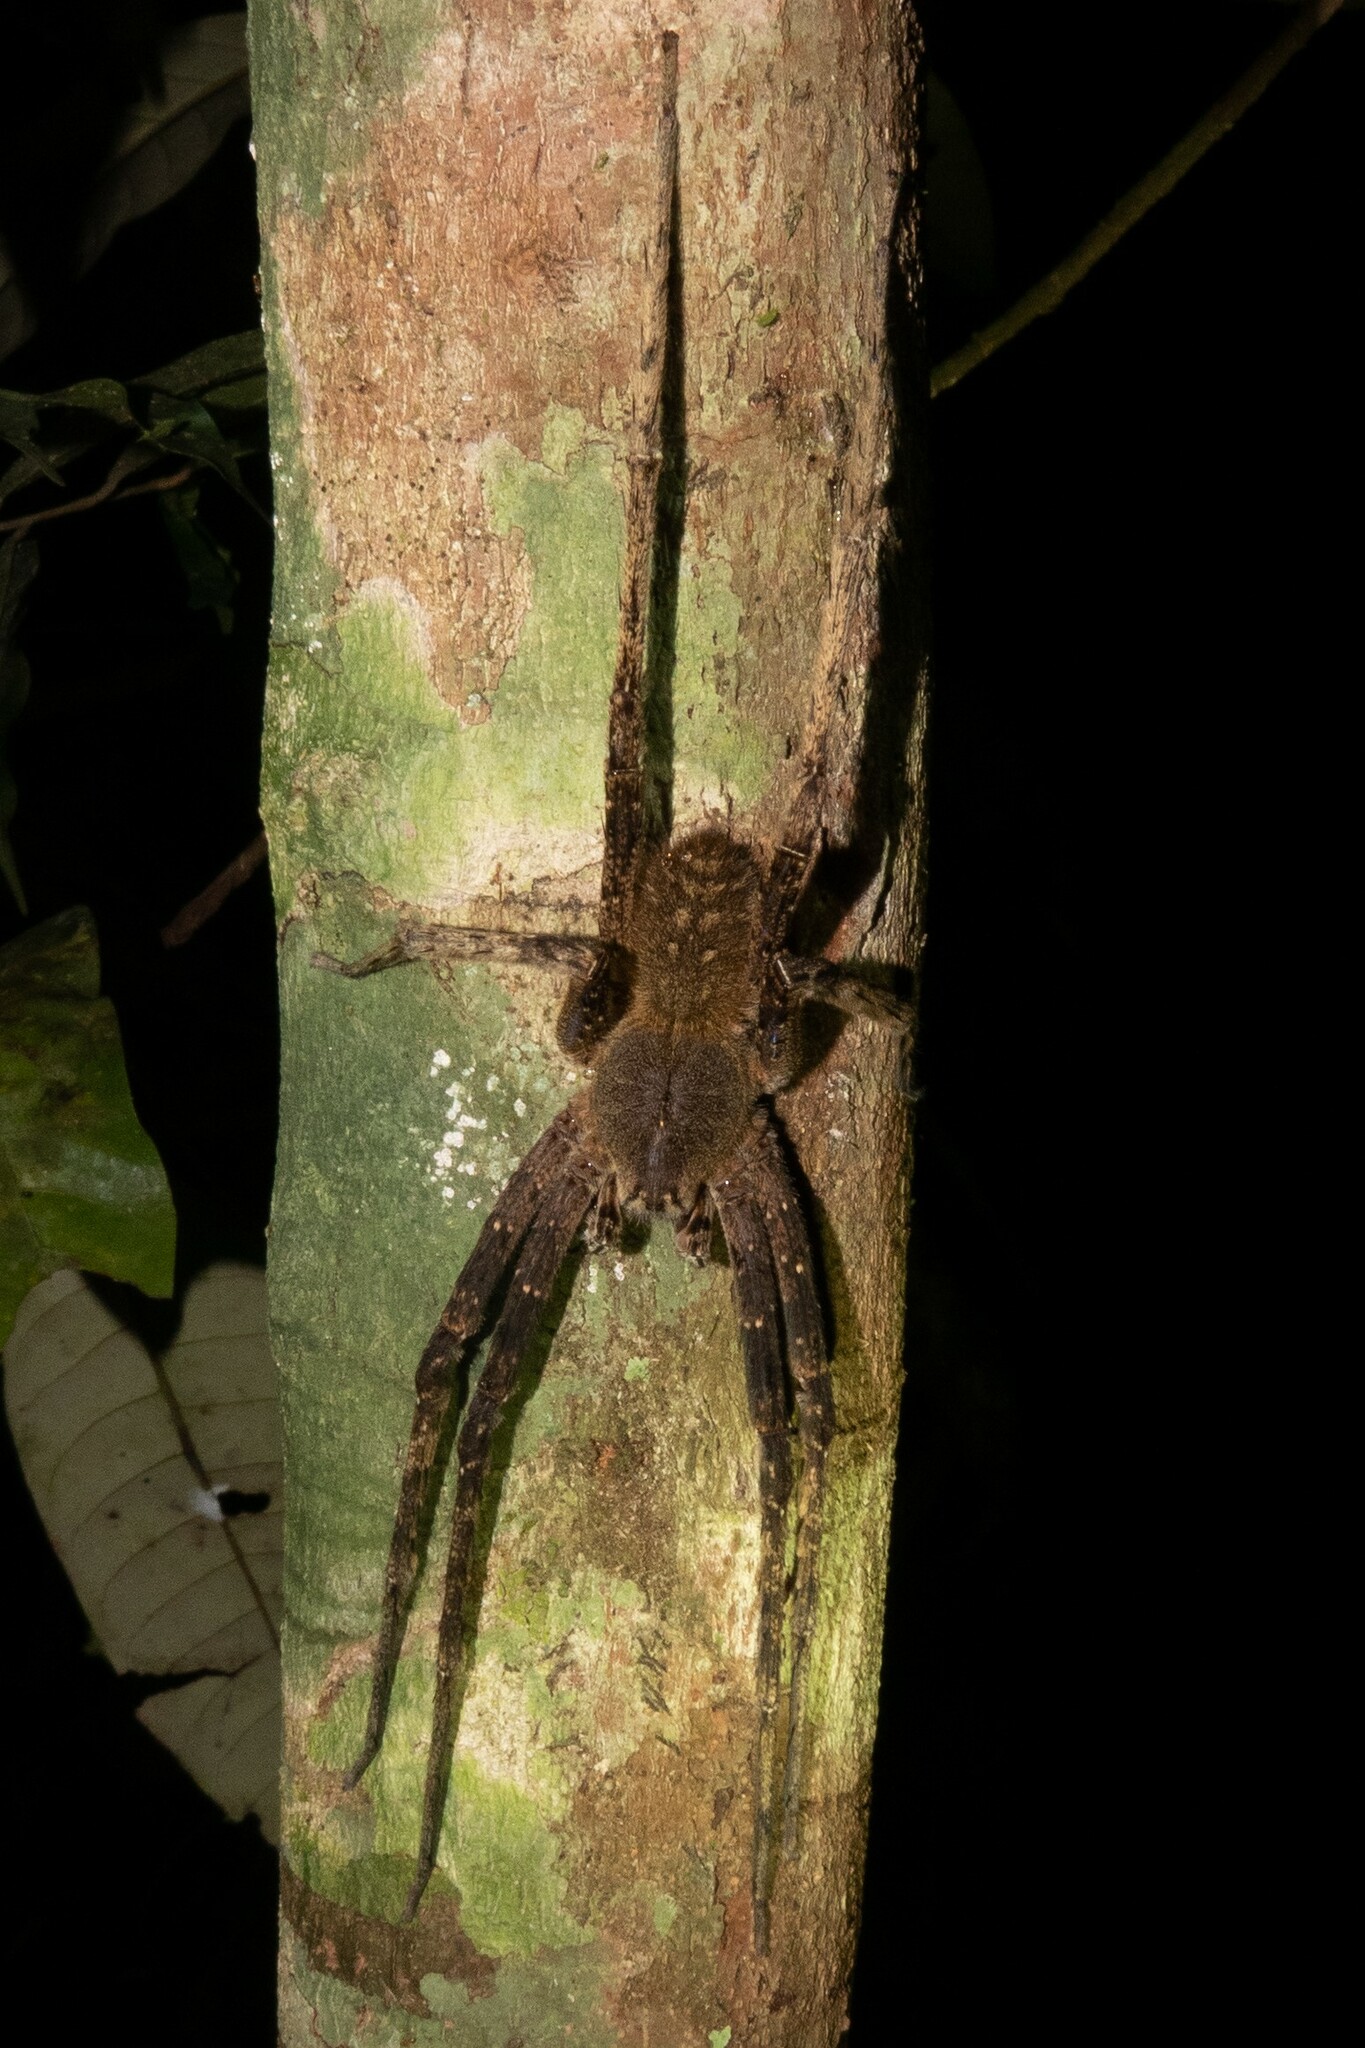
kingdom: Animalia
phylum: Arthropoda
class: Arachnida
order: Araneae
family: Ctenidae
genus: Phoneutria
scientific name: Phoneutria fera
